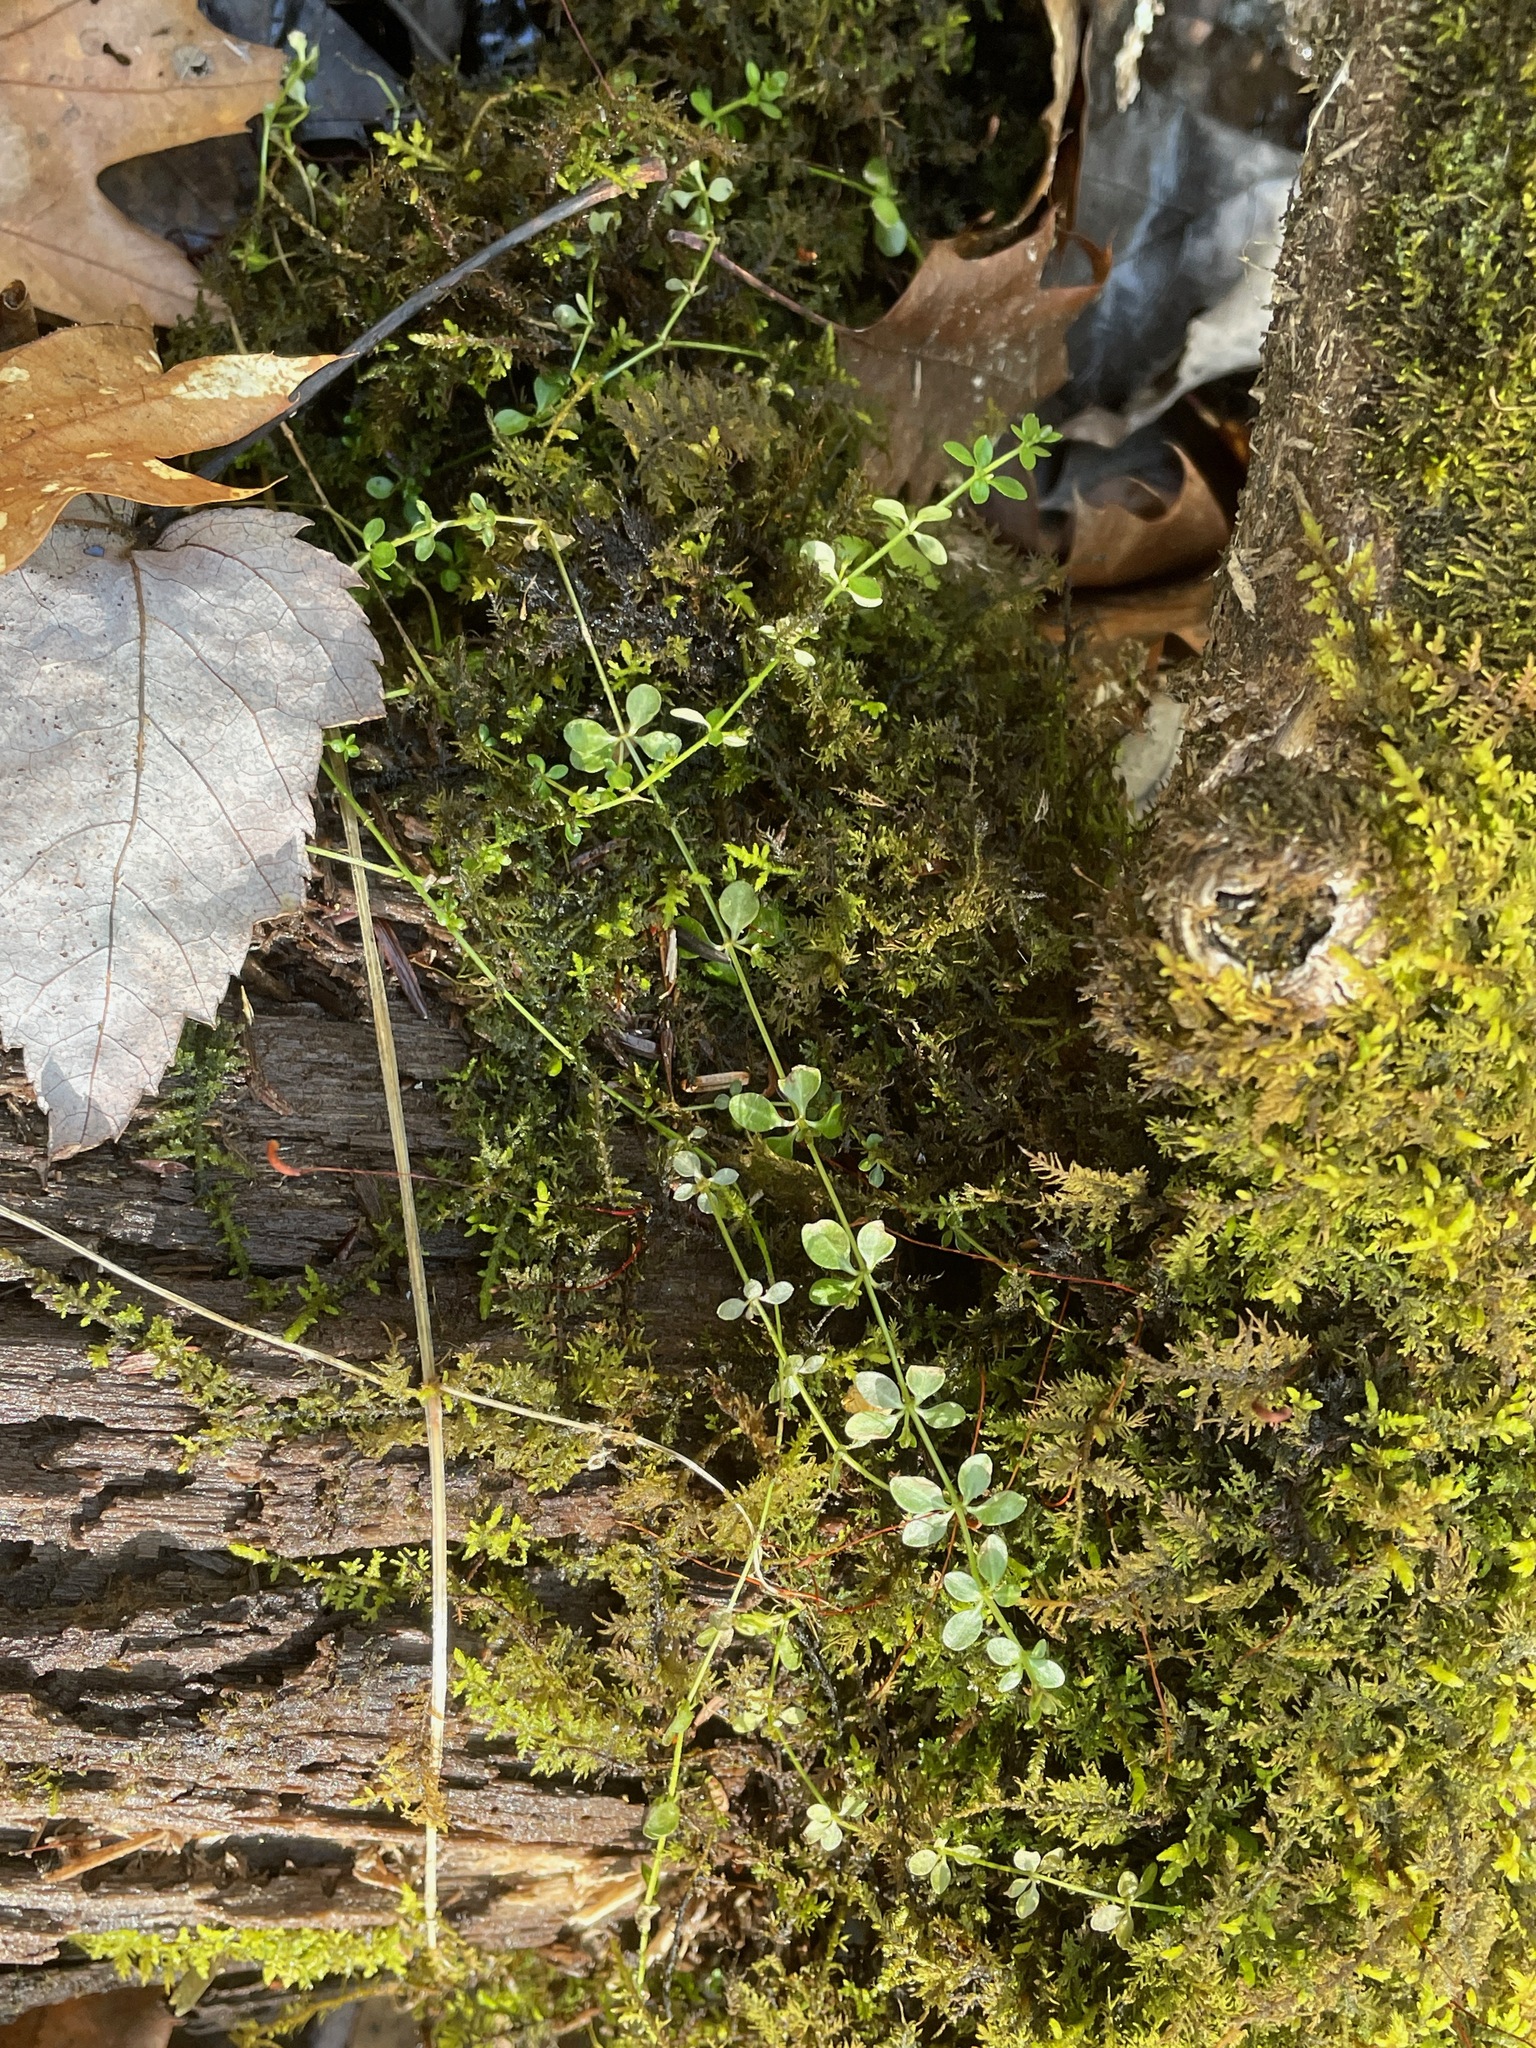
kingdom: Plantae
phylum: Tracheophyta
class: Magnoliopsida
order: Gentianales
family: Rubiaceae
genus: Galium
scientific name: Galium palustre
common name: Common marsh-bedstraw
